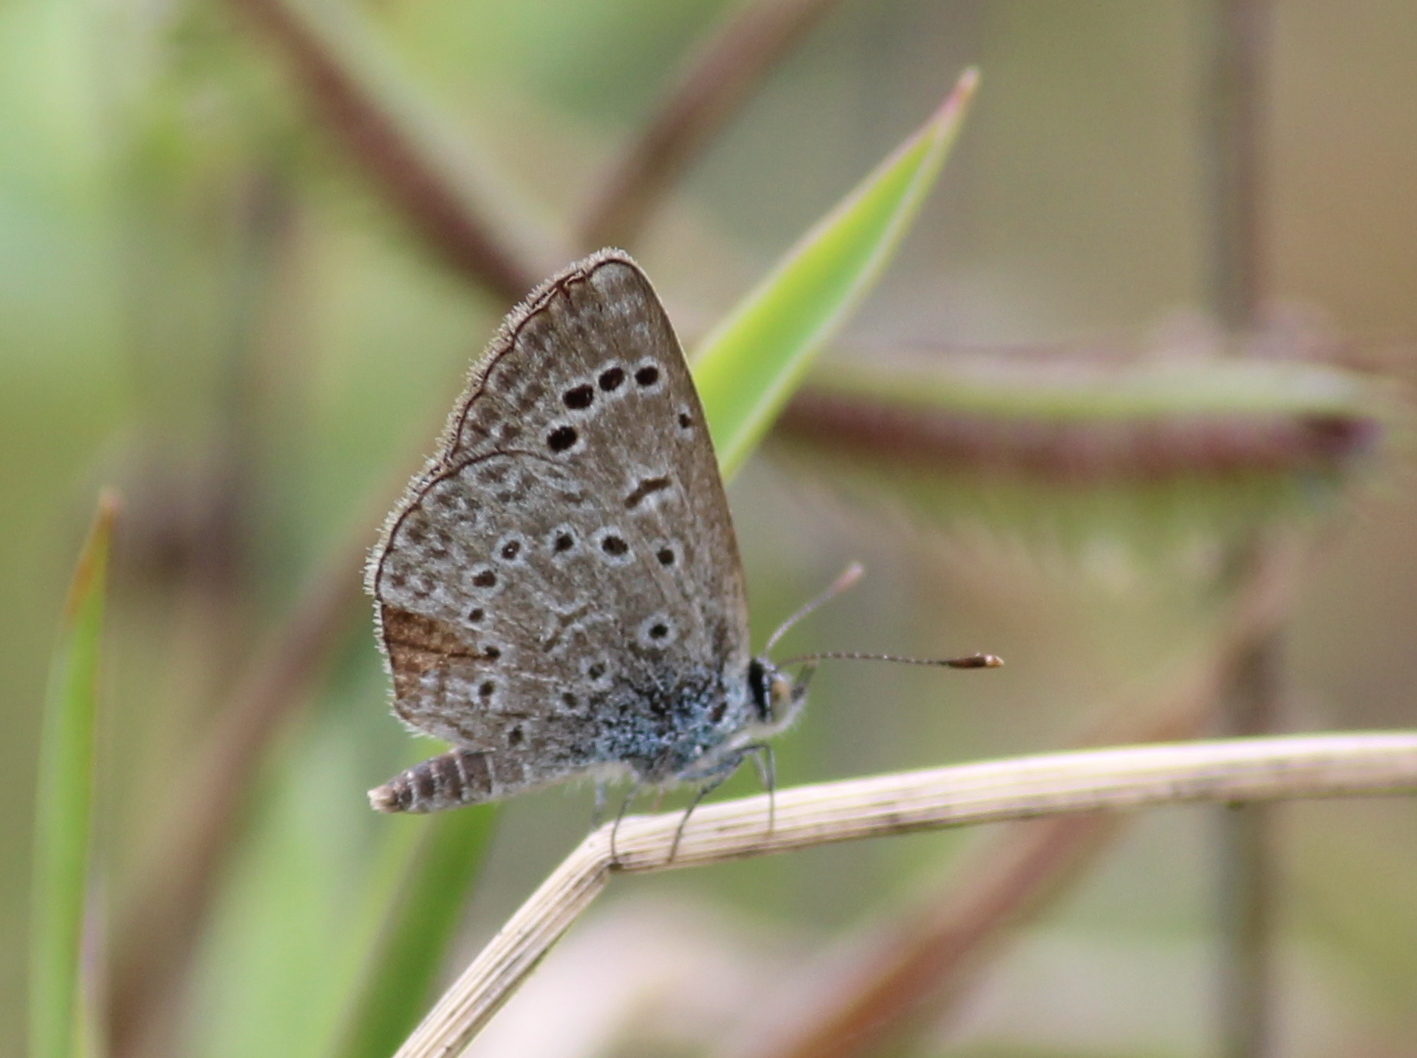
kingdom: Animalia
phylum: Arthropoda
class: Insecta
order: Lepidoptera
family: Lycaenidae
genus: Zizeeria
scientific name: Zizeeria karsandra
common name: Dark grass blue
